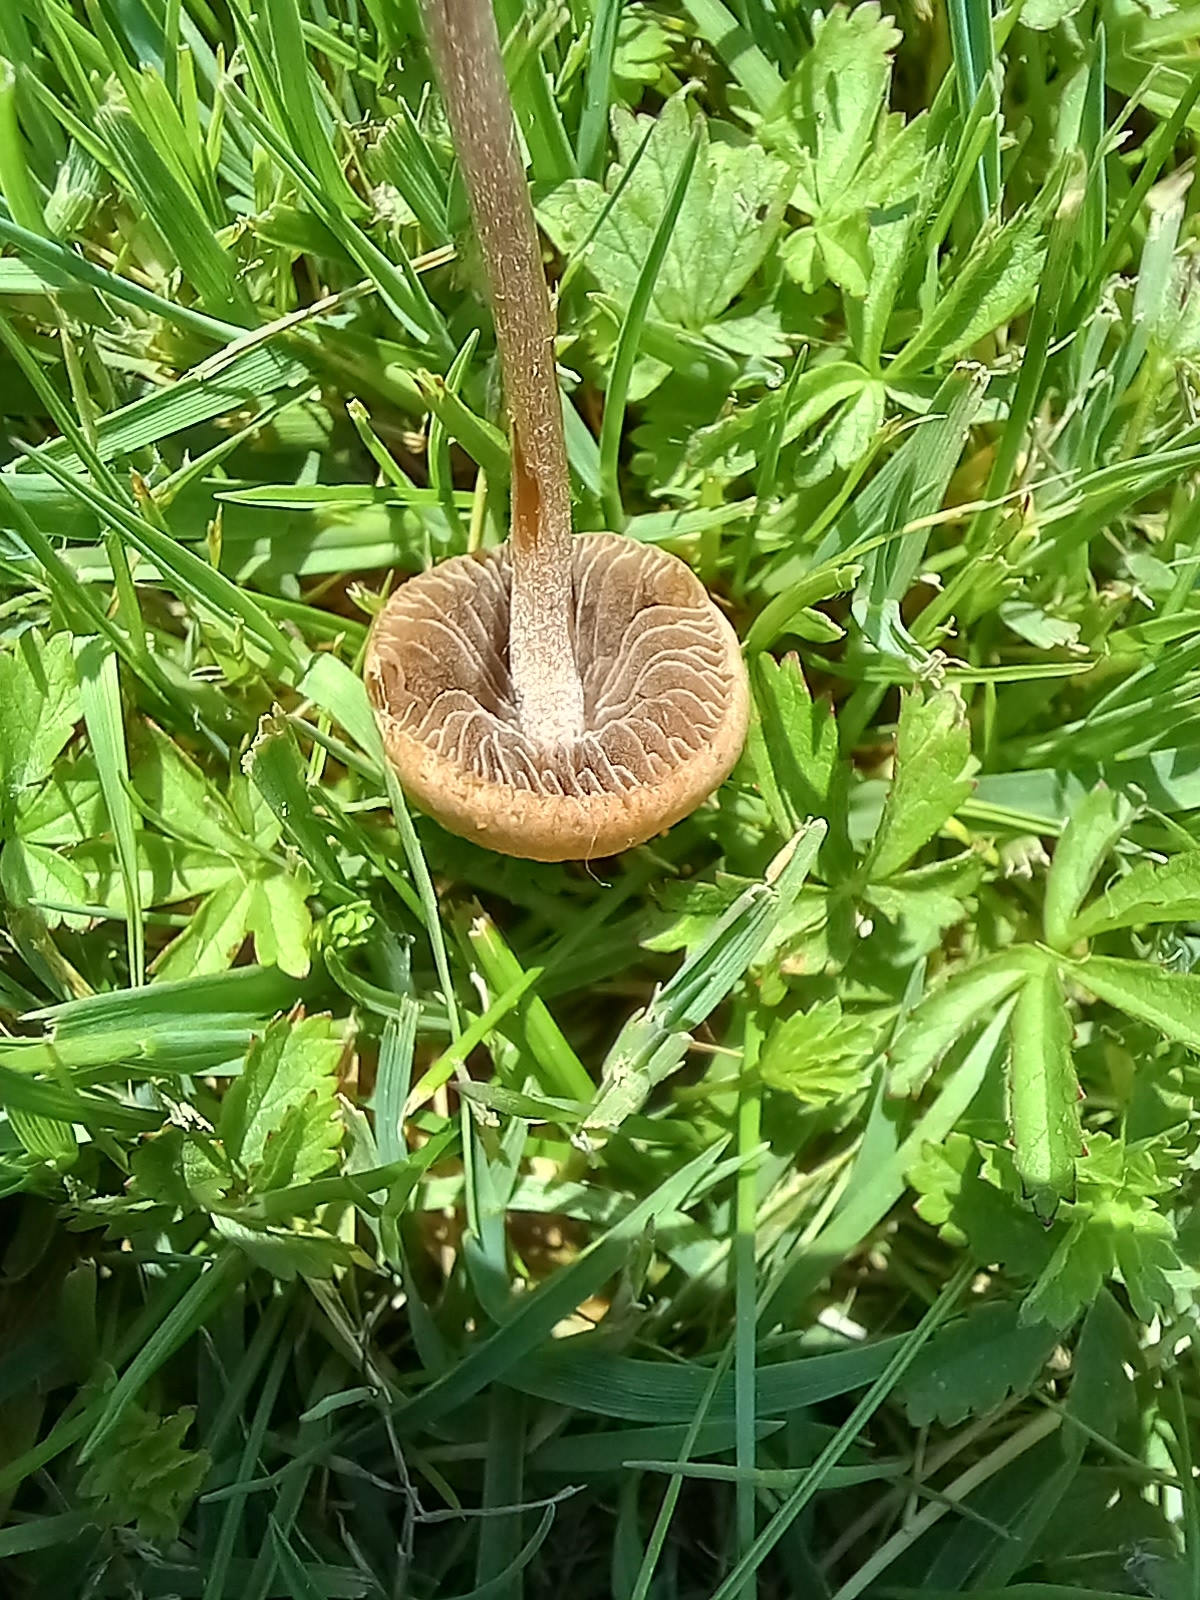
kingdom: Fungi
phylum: Basidiomycota
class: Agaricomycetes
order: Agaricales
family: Bolbitiaceae
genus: Panaeolina
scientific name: Panaeolina foenisecii
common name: Brown hay cap
